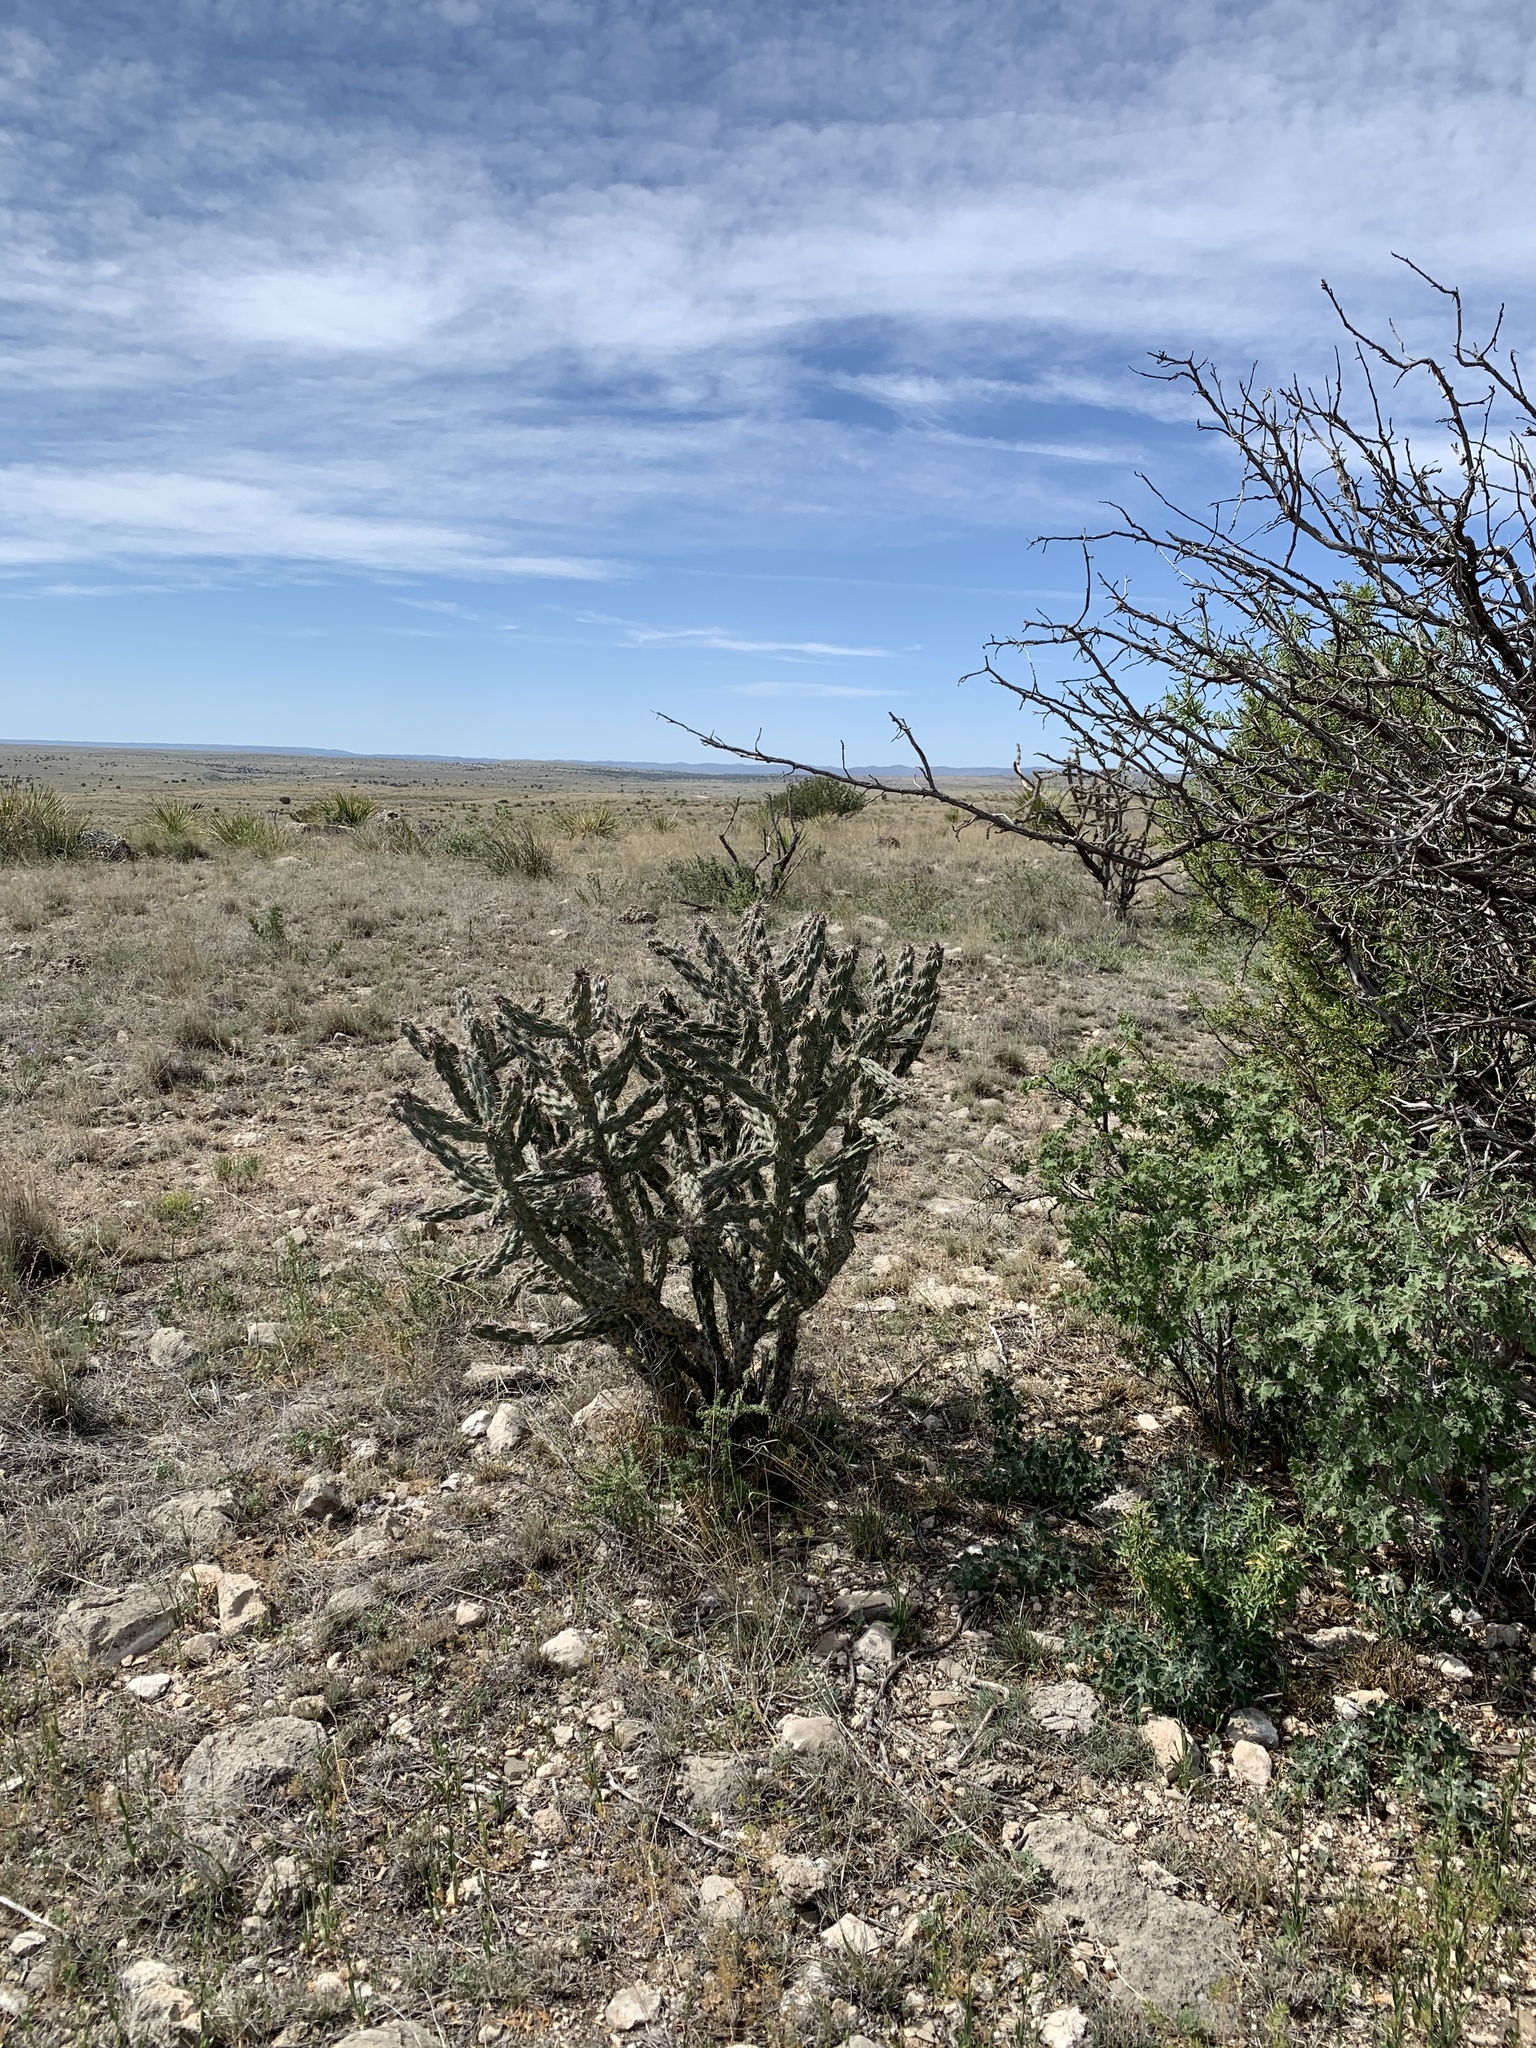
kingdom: Plantae
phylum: Tracheophyta
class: Magnoliopsida
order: Caryophyllales
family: Cactaceae
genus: Cylindropuntia
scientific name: Cylindropuntia imbricata
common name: Candelabrum cactus
